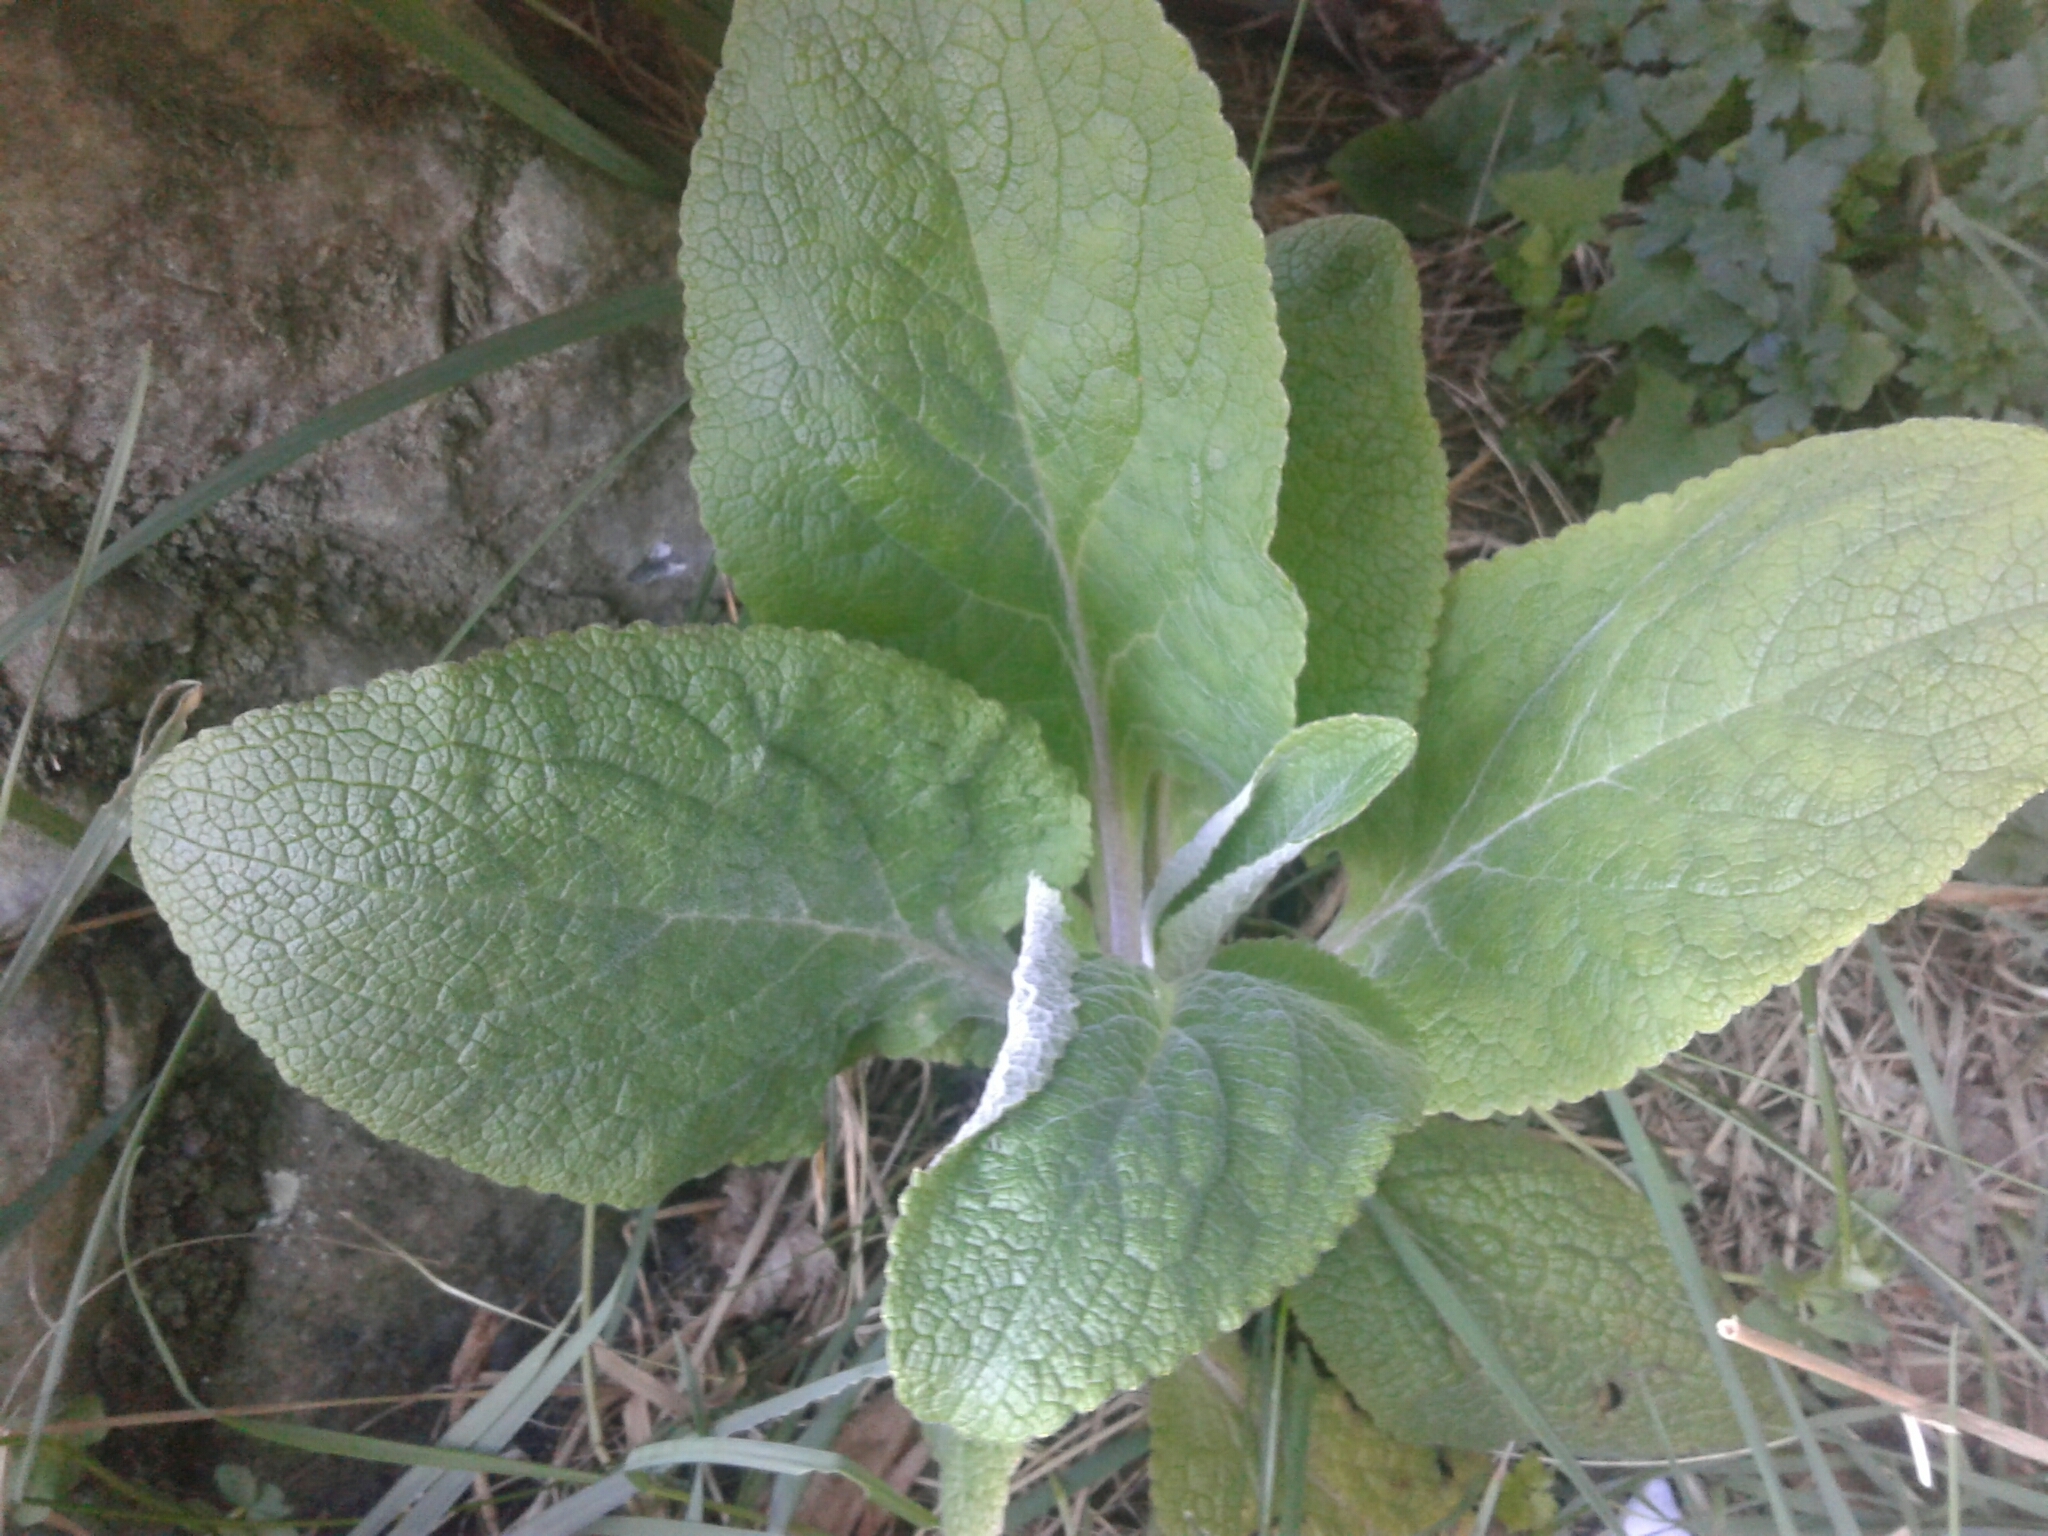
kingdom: Plantae
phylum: Tracheophyta
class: Magnoliopsida
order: Lamiales
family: Plantaginaceae
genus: Digitalis
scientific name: Digitalis purpurea
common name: Foxglove
